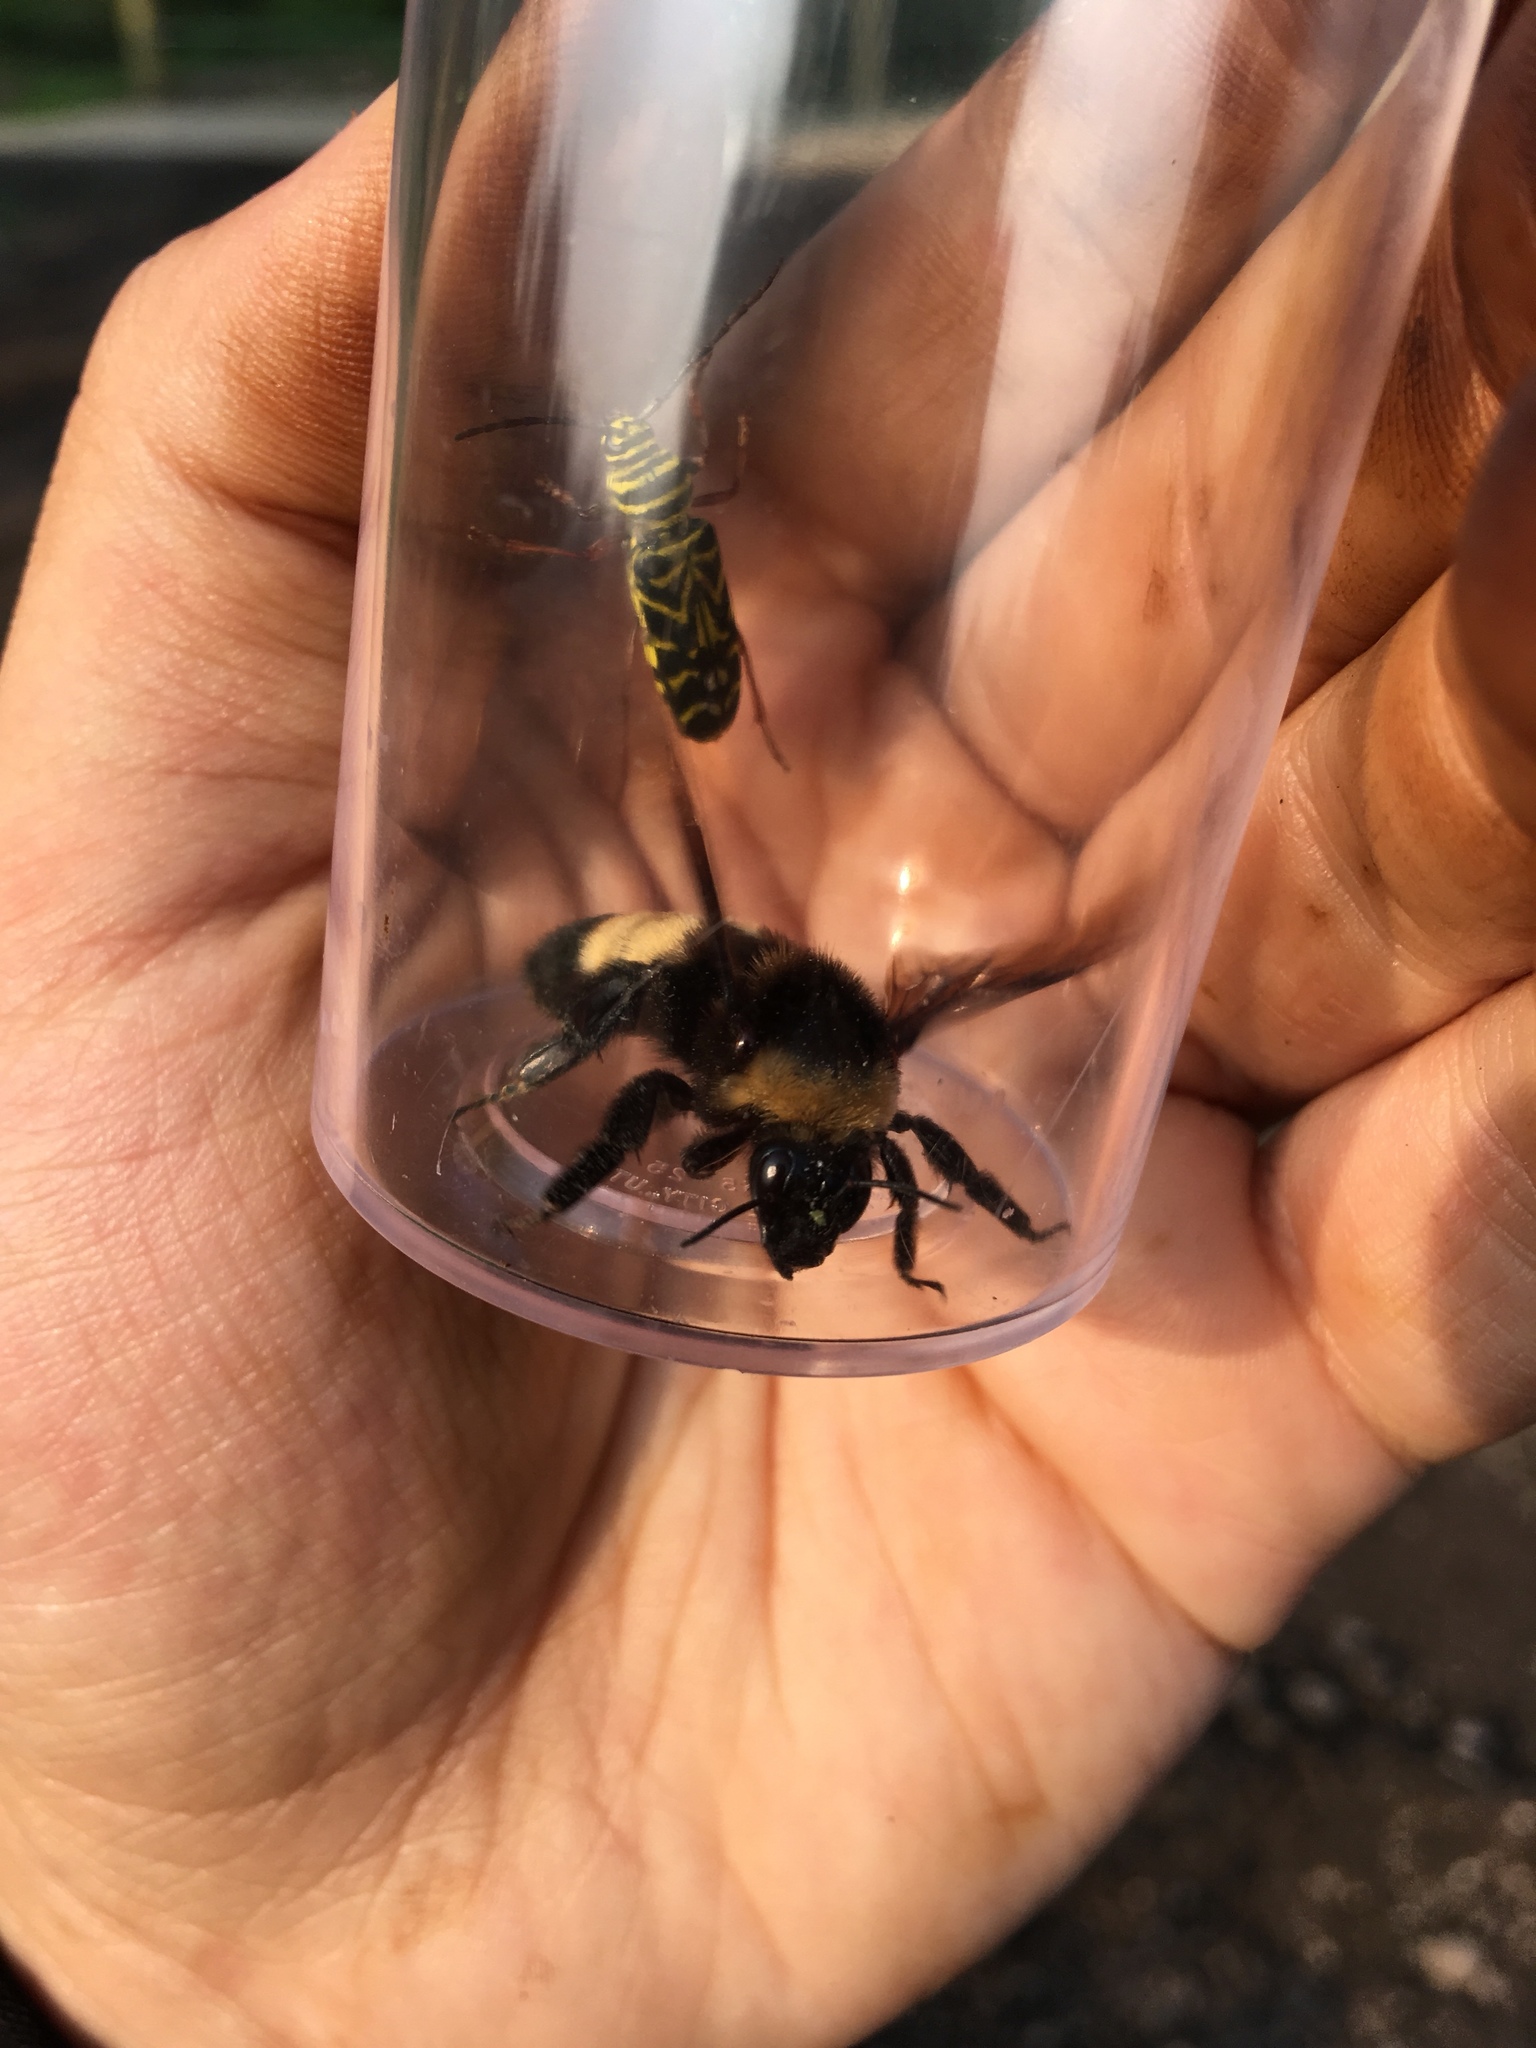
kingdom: Animalia
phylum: Arthropoda
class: Insecta
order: Hymenoptera
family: Apidae
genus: Bombus
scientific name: Bombus auricomus
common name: Black and gold bumble bee
